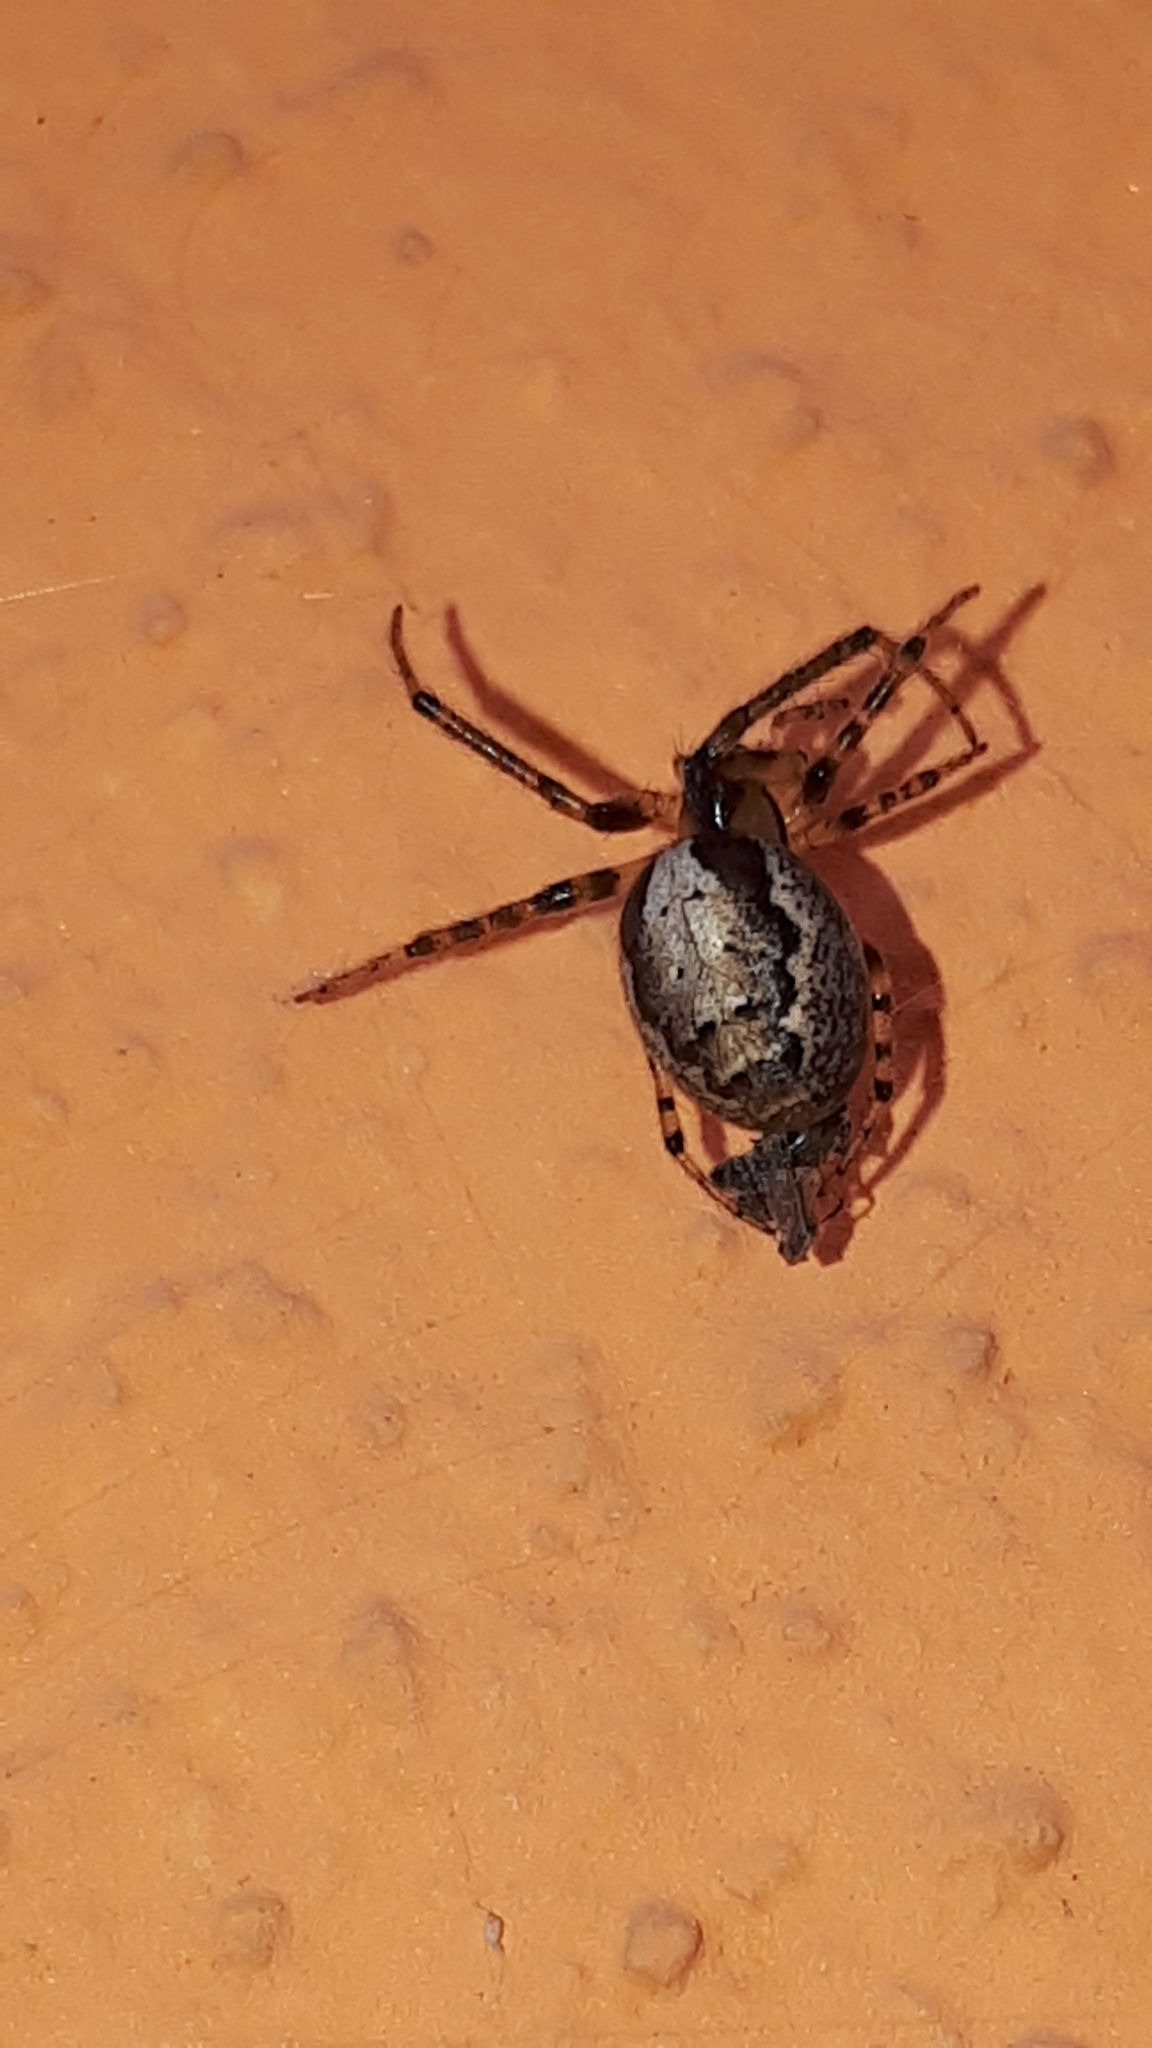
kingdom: Animalia
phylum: Arthropoda
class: Arachnida
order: Araneae
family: Araneidae
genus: Zygiella
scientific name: Zygiella x-notata
